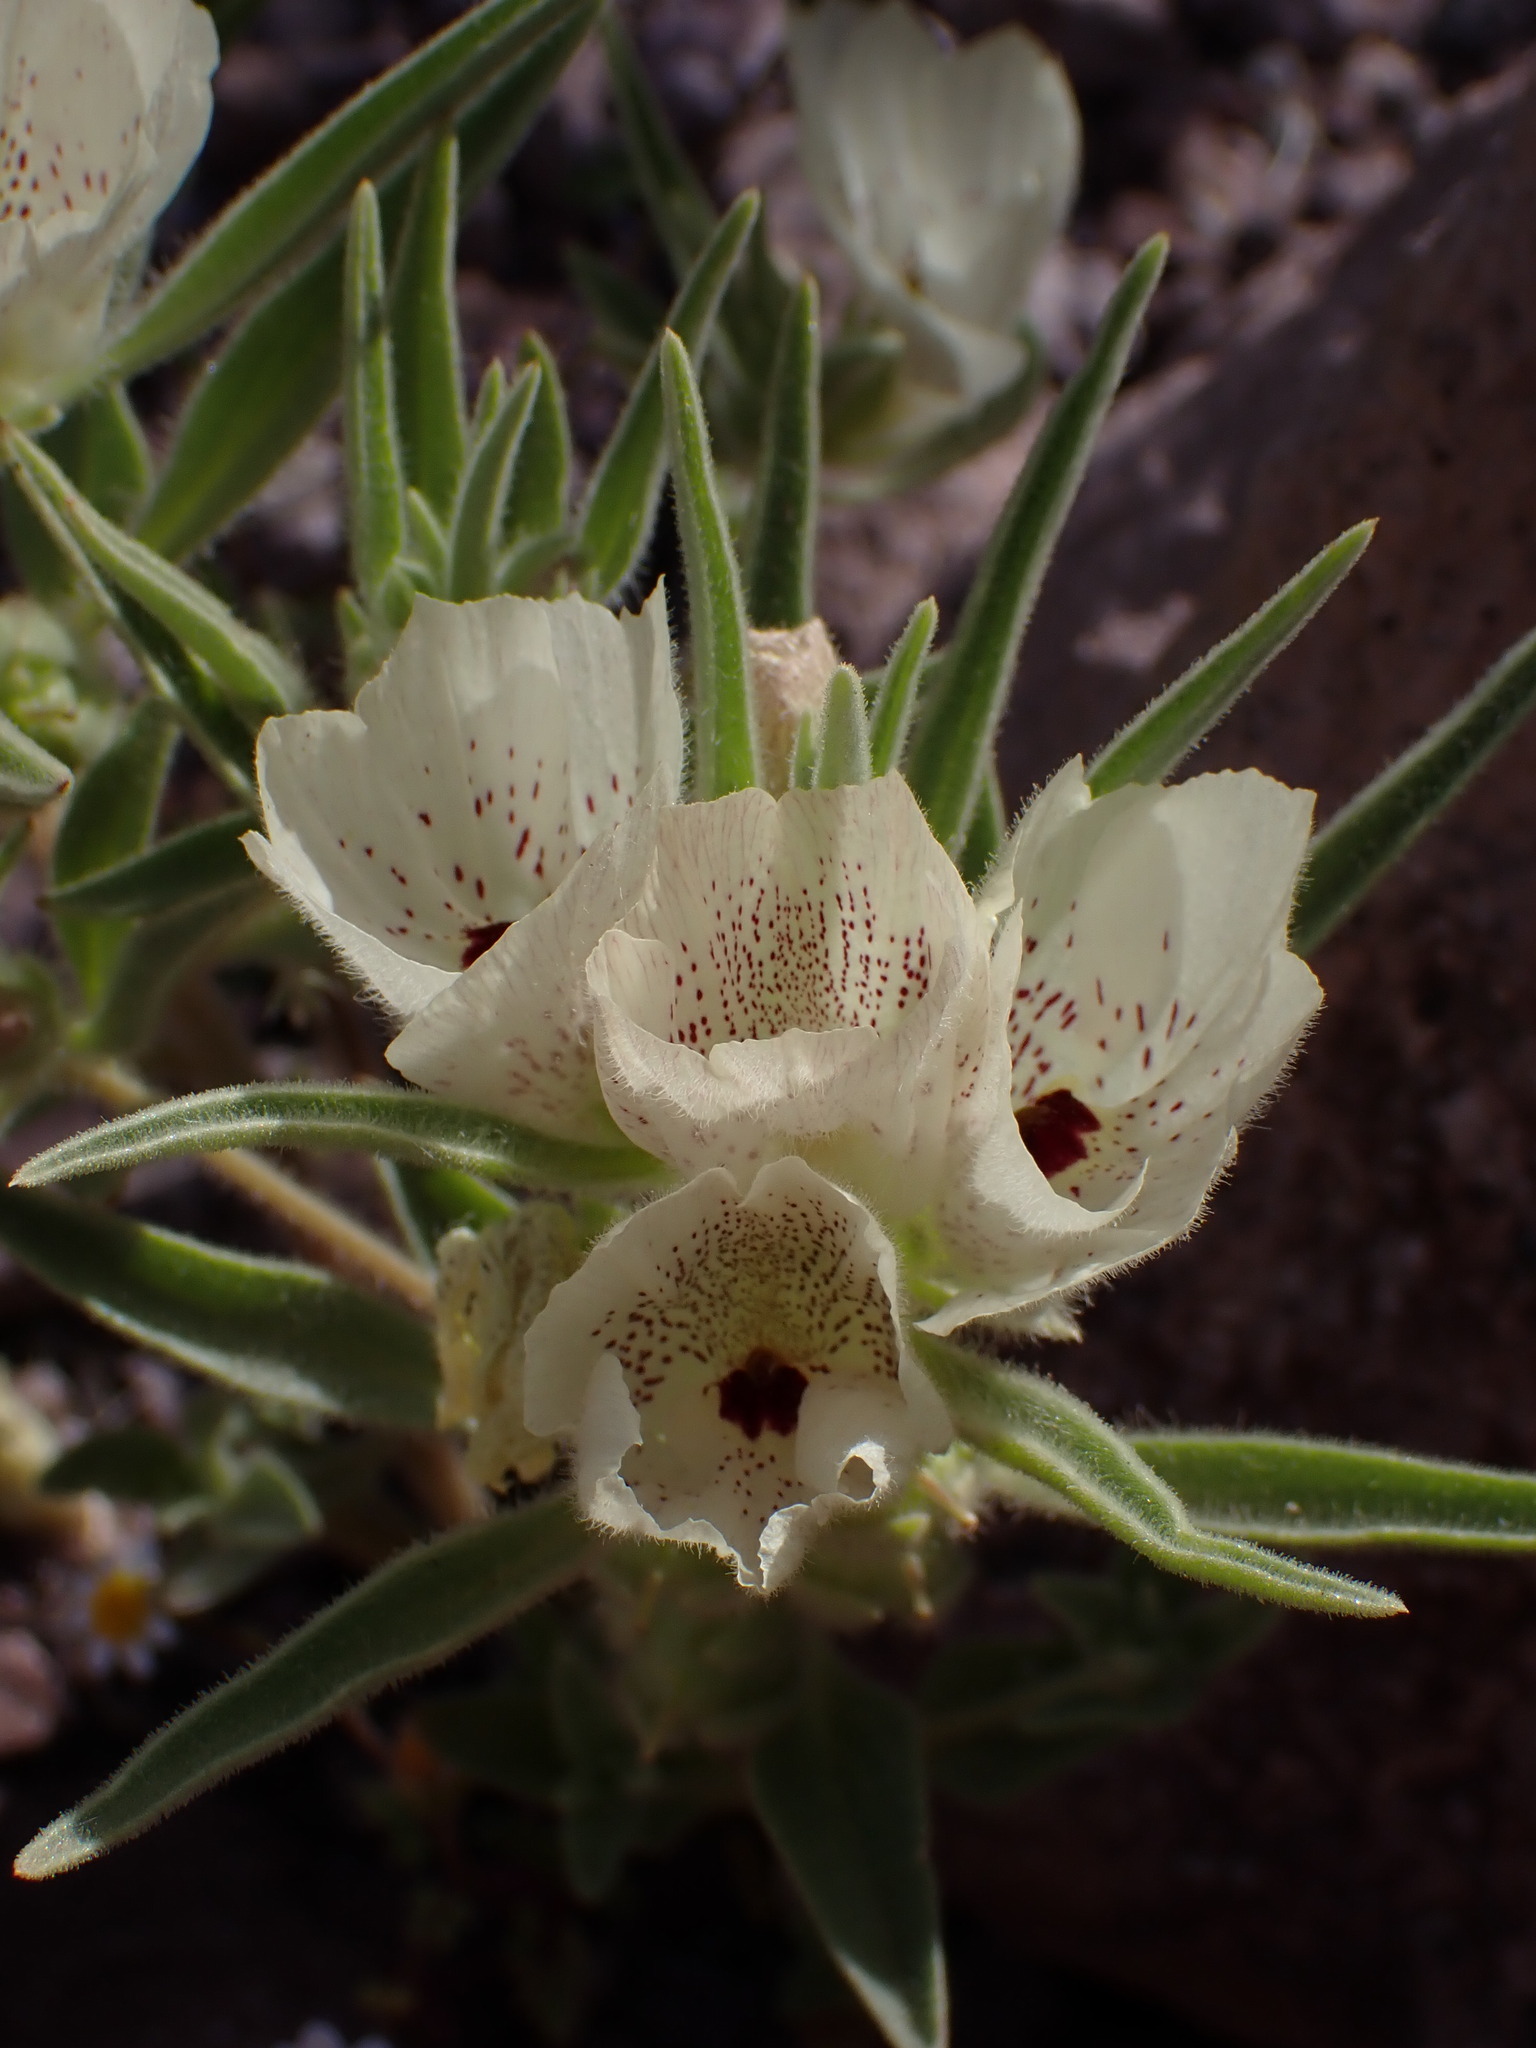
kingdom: Plantae
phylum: Tracheophyta
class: Magnoliopsida
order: Lamiales
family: Plantaginaceae
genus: Mohavea
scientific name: Mohavea confertiflora
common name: Ghost flower
